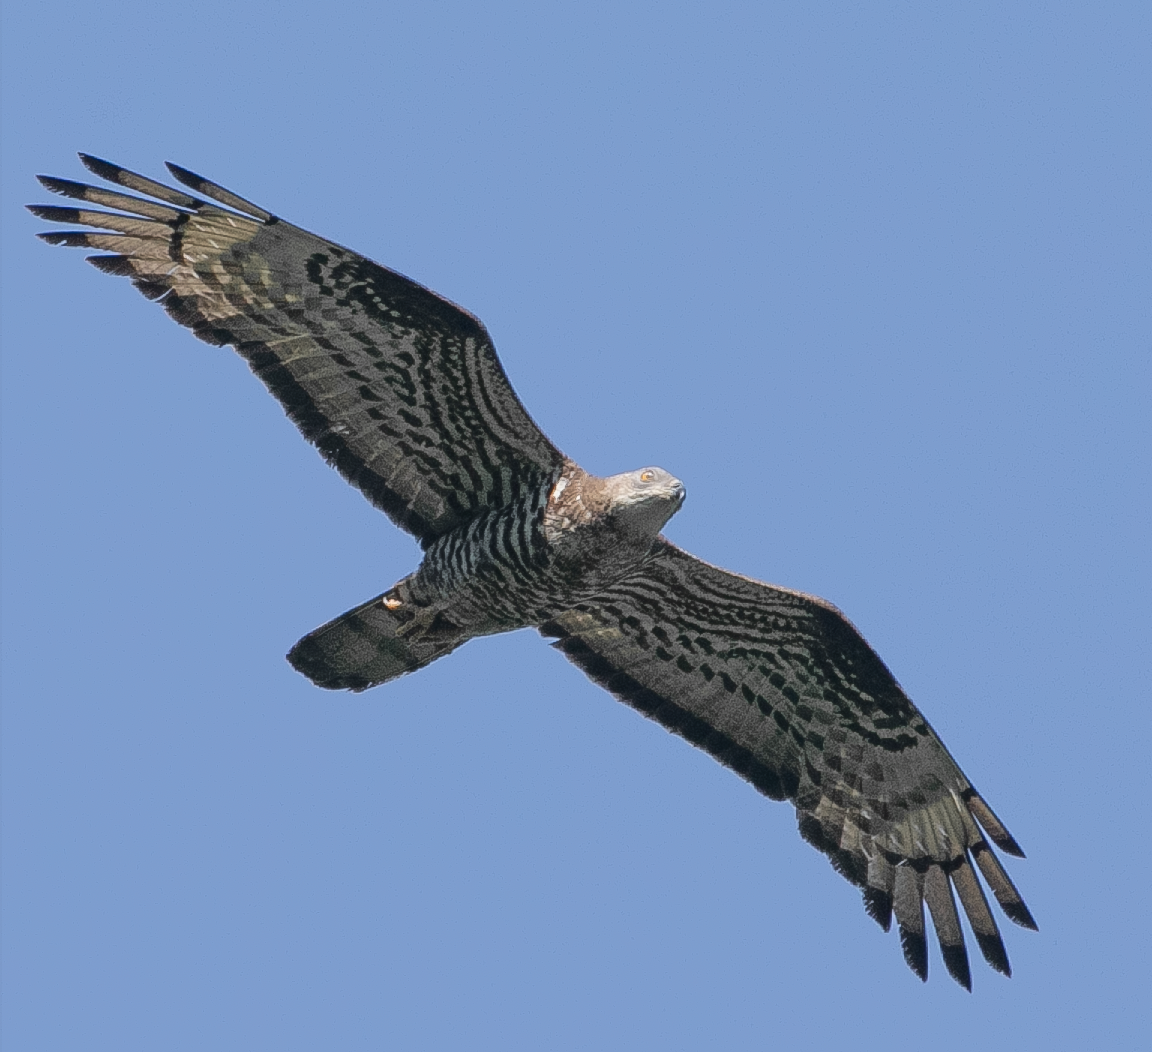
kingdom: Animalia
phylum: Chordata
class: Aves
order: Accipitriformes
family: Accipitridae
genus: Pernis
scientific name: Pernis apivorus
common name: European honey buzzard
